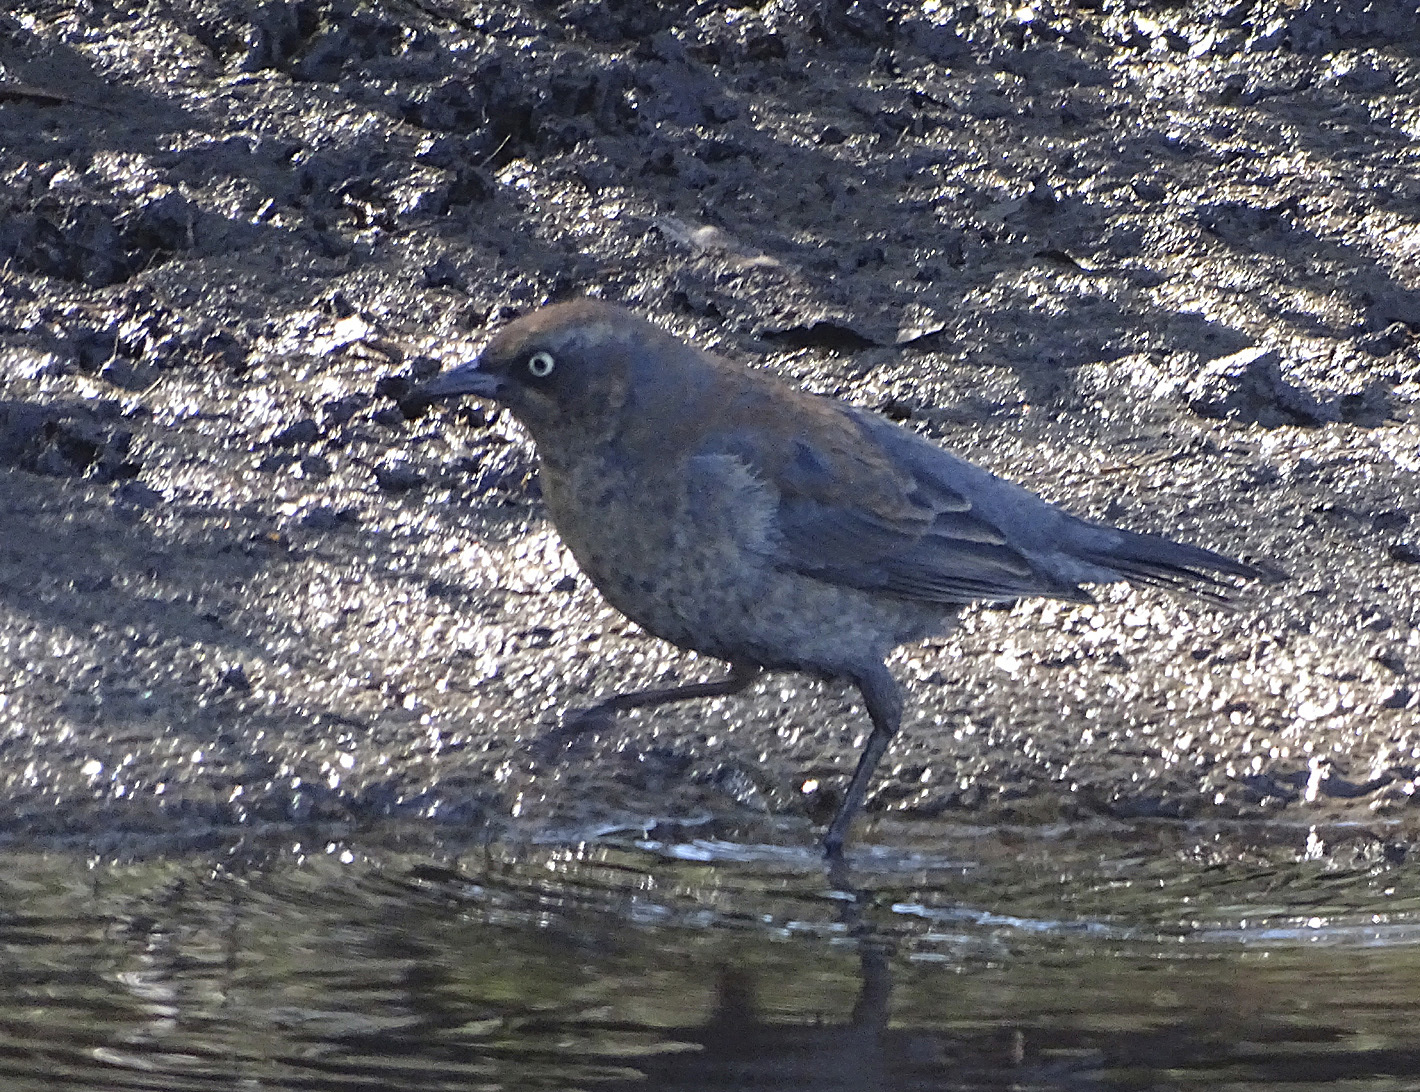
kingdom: Animalia
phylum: Chordata
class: Aves
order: Passeriformes
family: Icteridae
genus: Euphagus
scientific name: Euphagus carolinus
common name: Rusty blackbird
